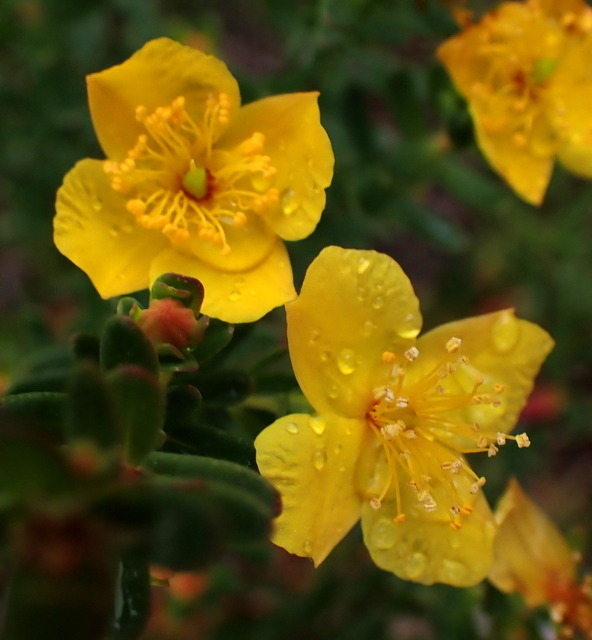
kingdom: Plantae
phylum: Tracheophyta
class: Magnoliopsida
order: Malpighiales
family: Hypericaceae
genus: Hypericum
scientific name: Hypericum microsepalum
